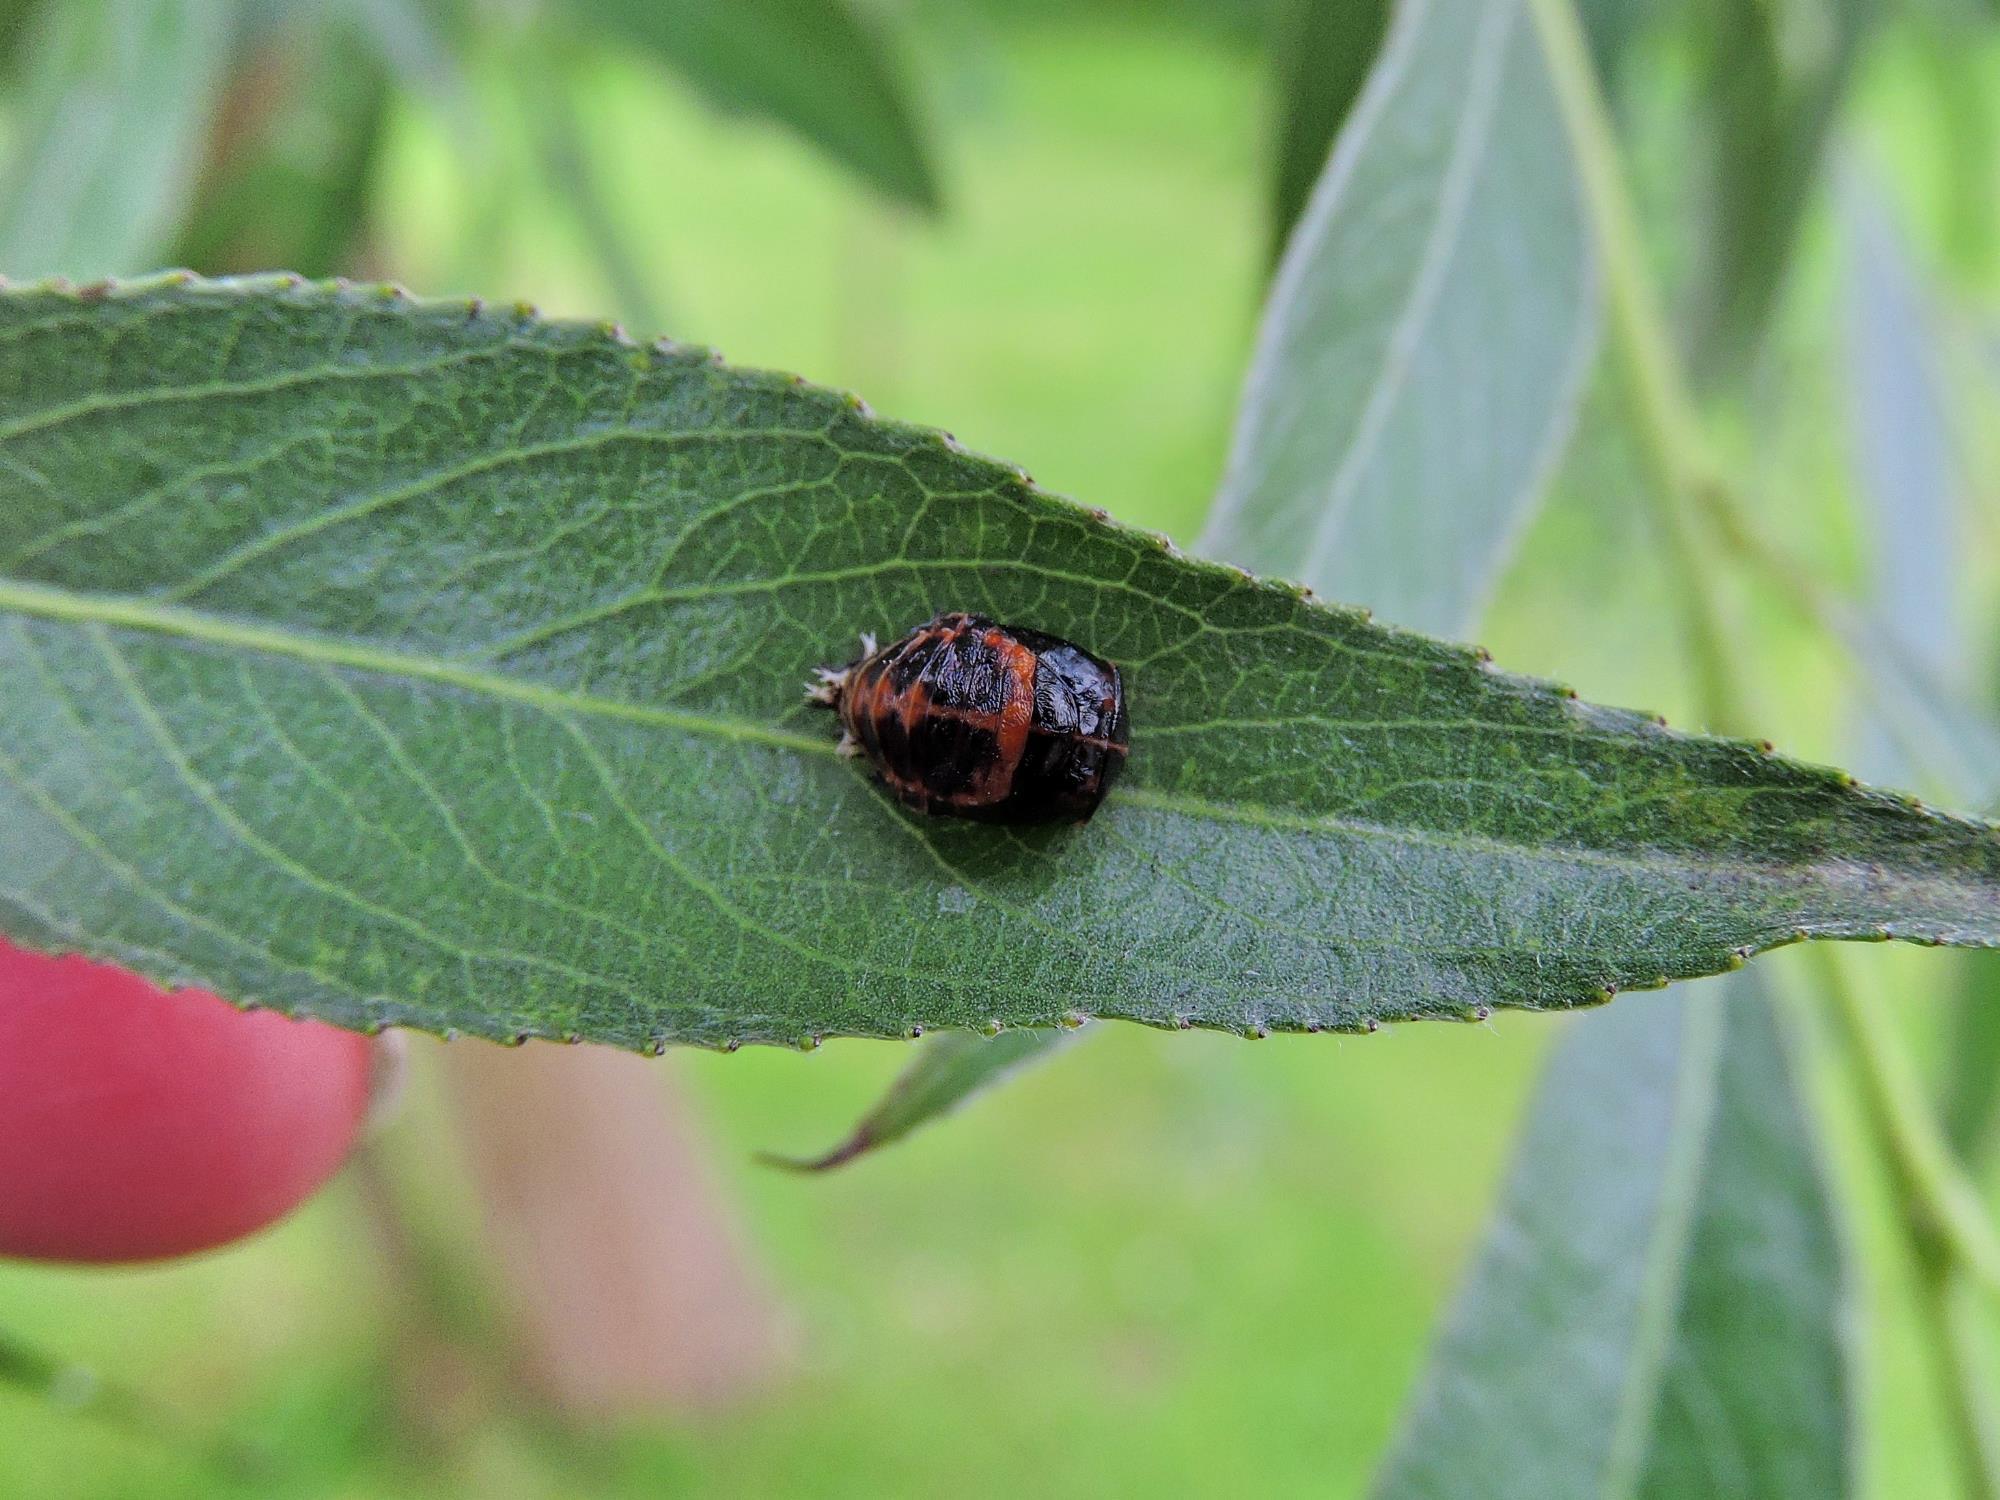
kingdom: Animalia
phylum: Arthropoda
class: Insecta
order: Coleoptera
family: Coccinellidae
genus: Harmonia
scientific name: Harmonia axyridis
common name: Harlequin ladybird
